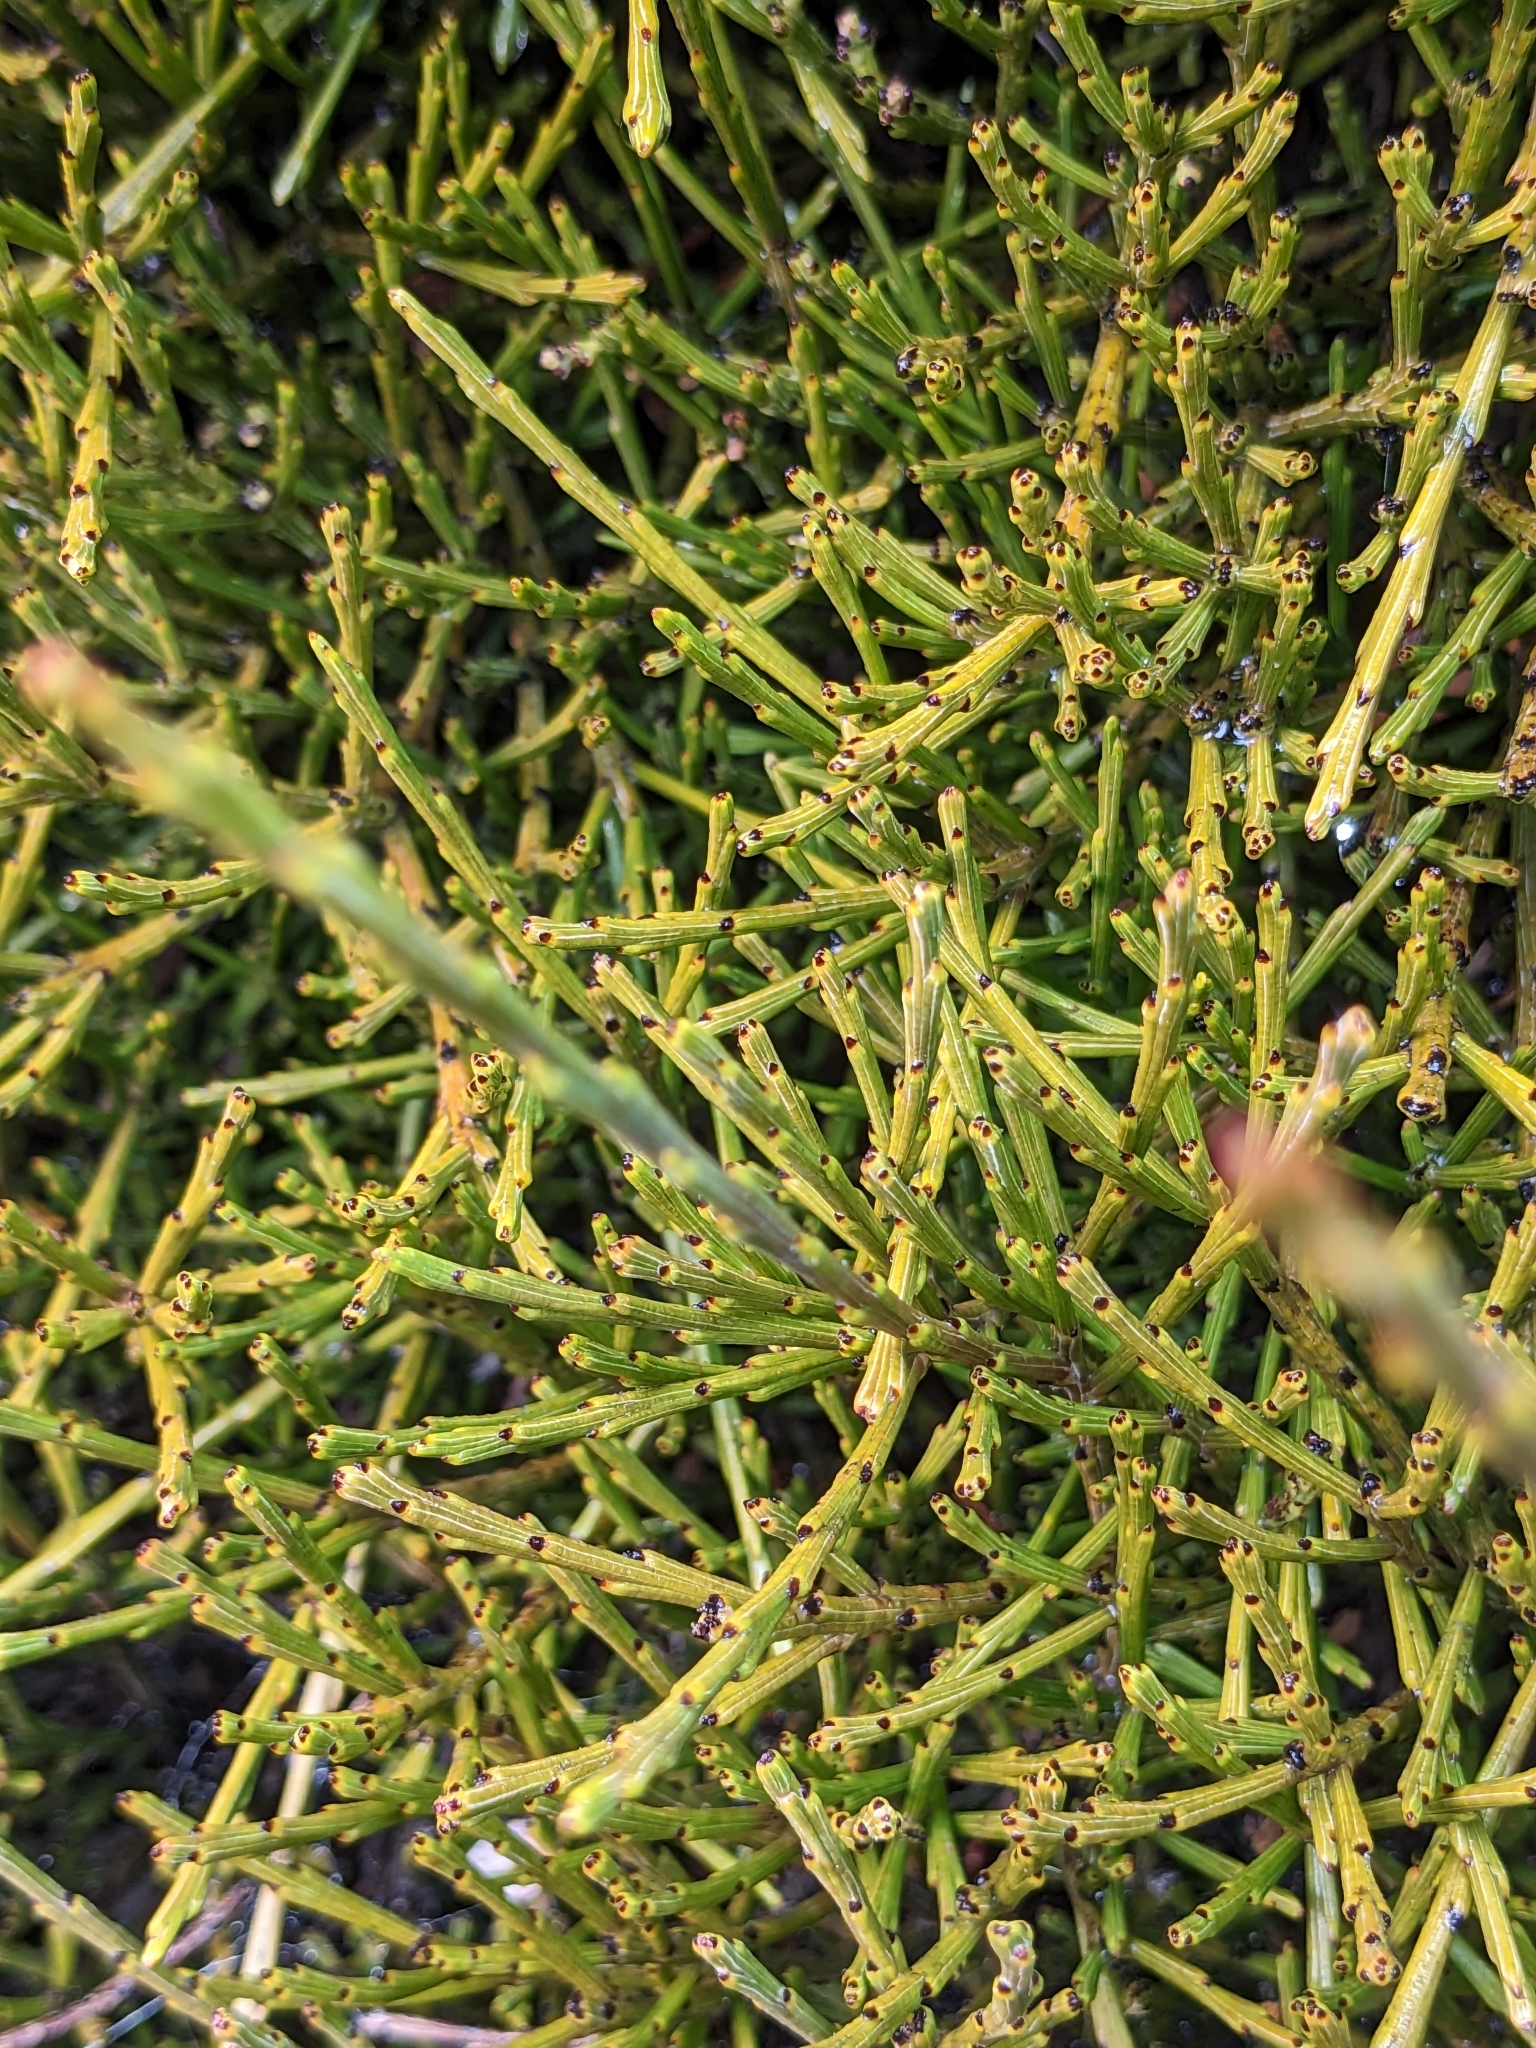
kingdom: Plantae
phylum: Tracheophyta
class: Magnoliopsida
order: Santalales
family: Santalaceae
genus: Exocarpos
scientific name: Exocarpos bidwillii
